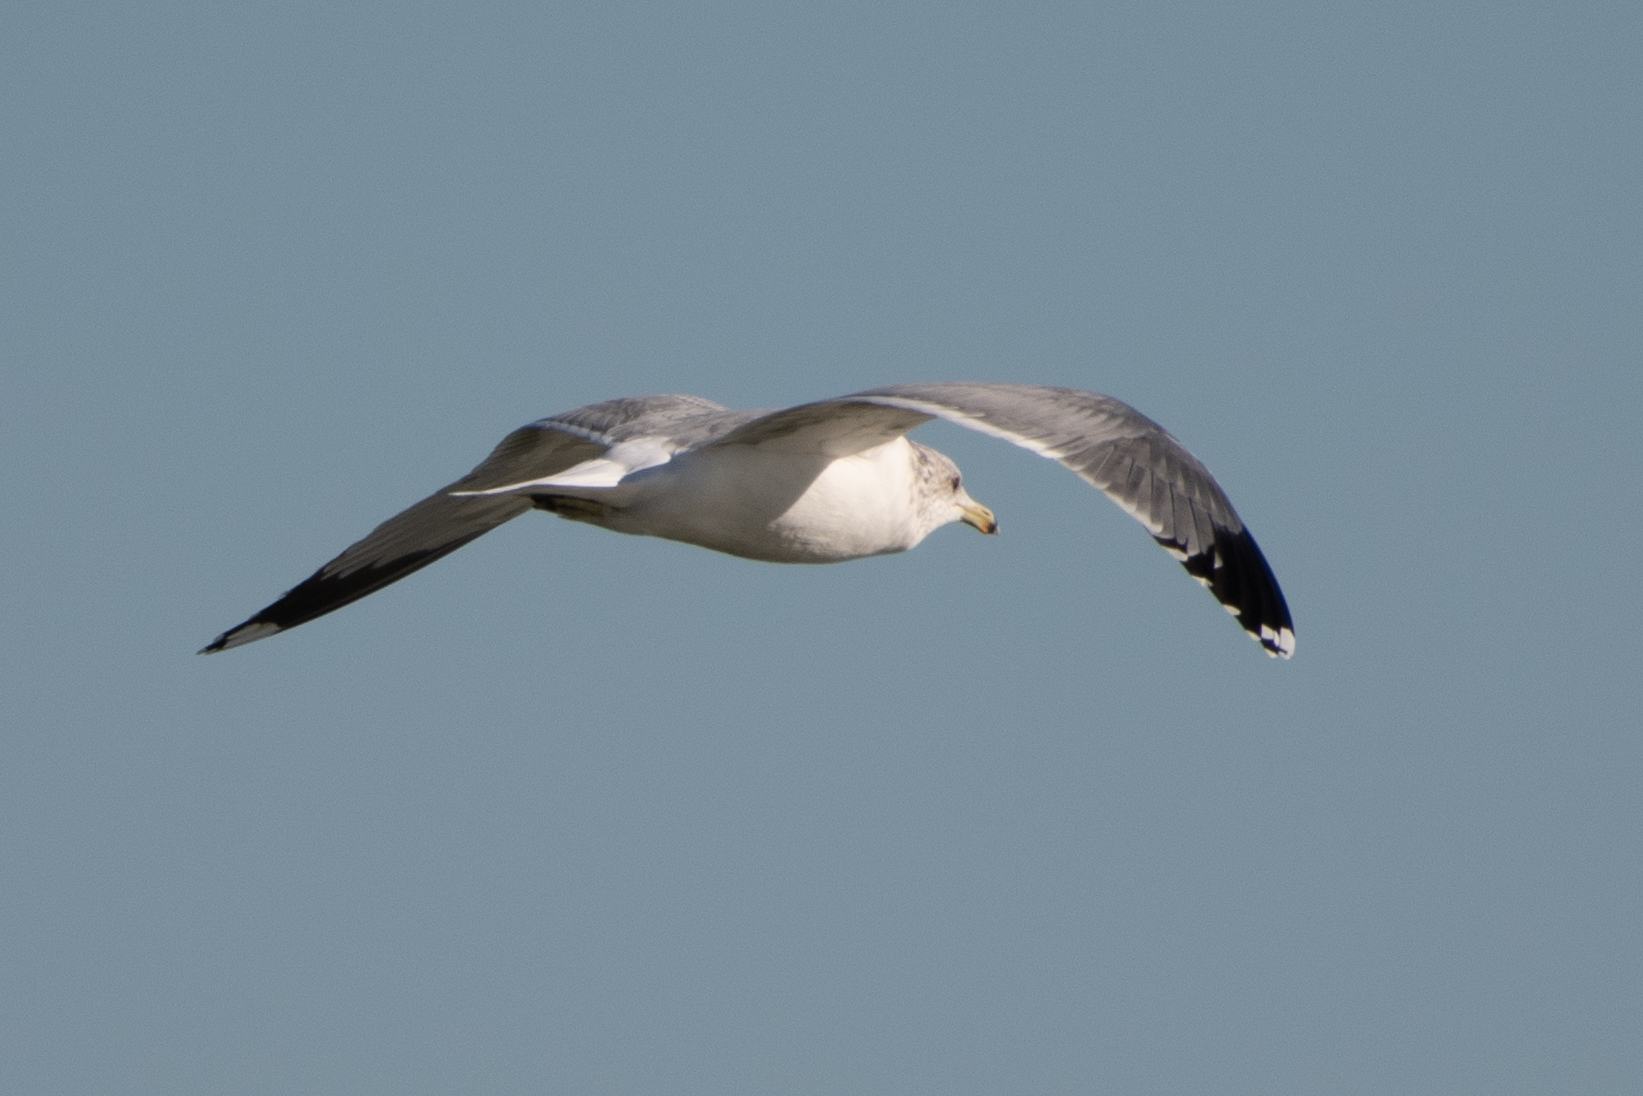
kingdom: Animalia
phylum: Chordata
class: Aves
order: Charadriiformes
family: Laridae
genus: Larus
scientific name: Larus californicus
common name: California gull
